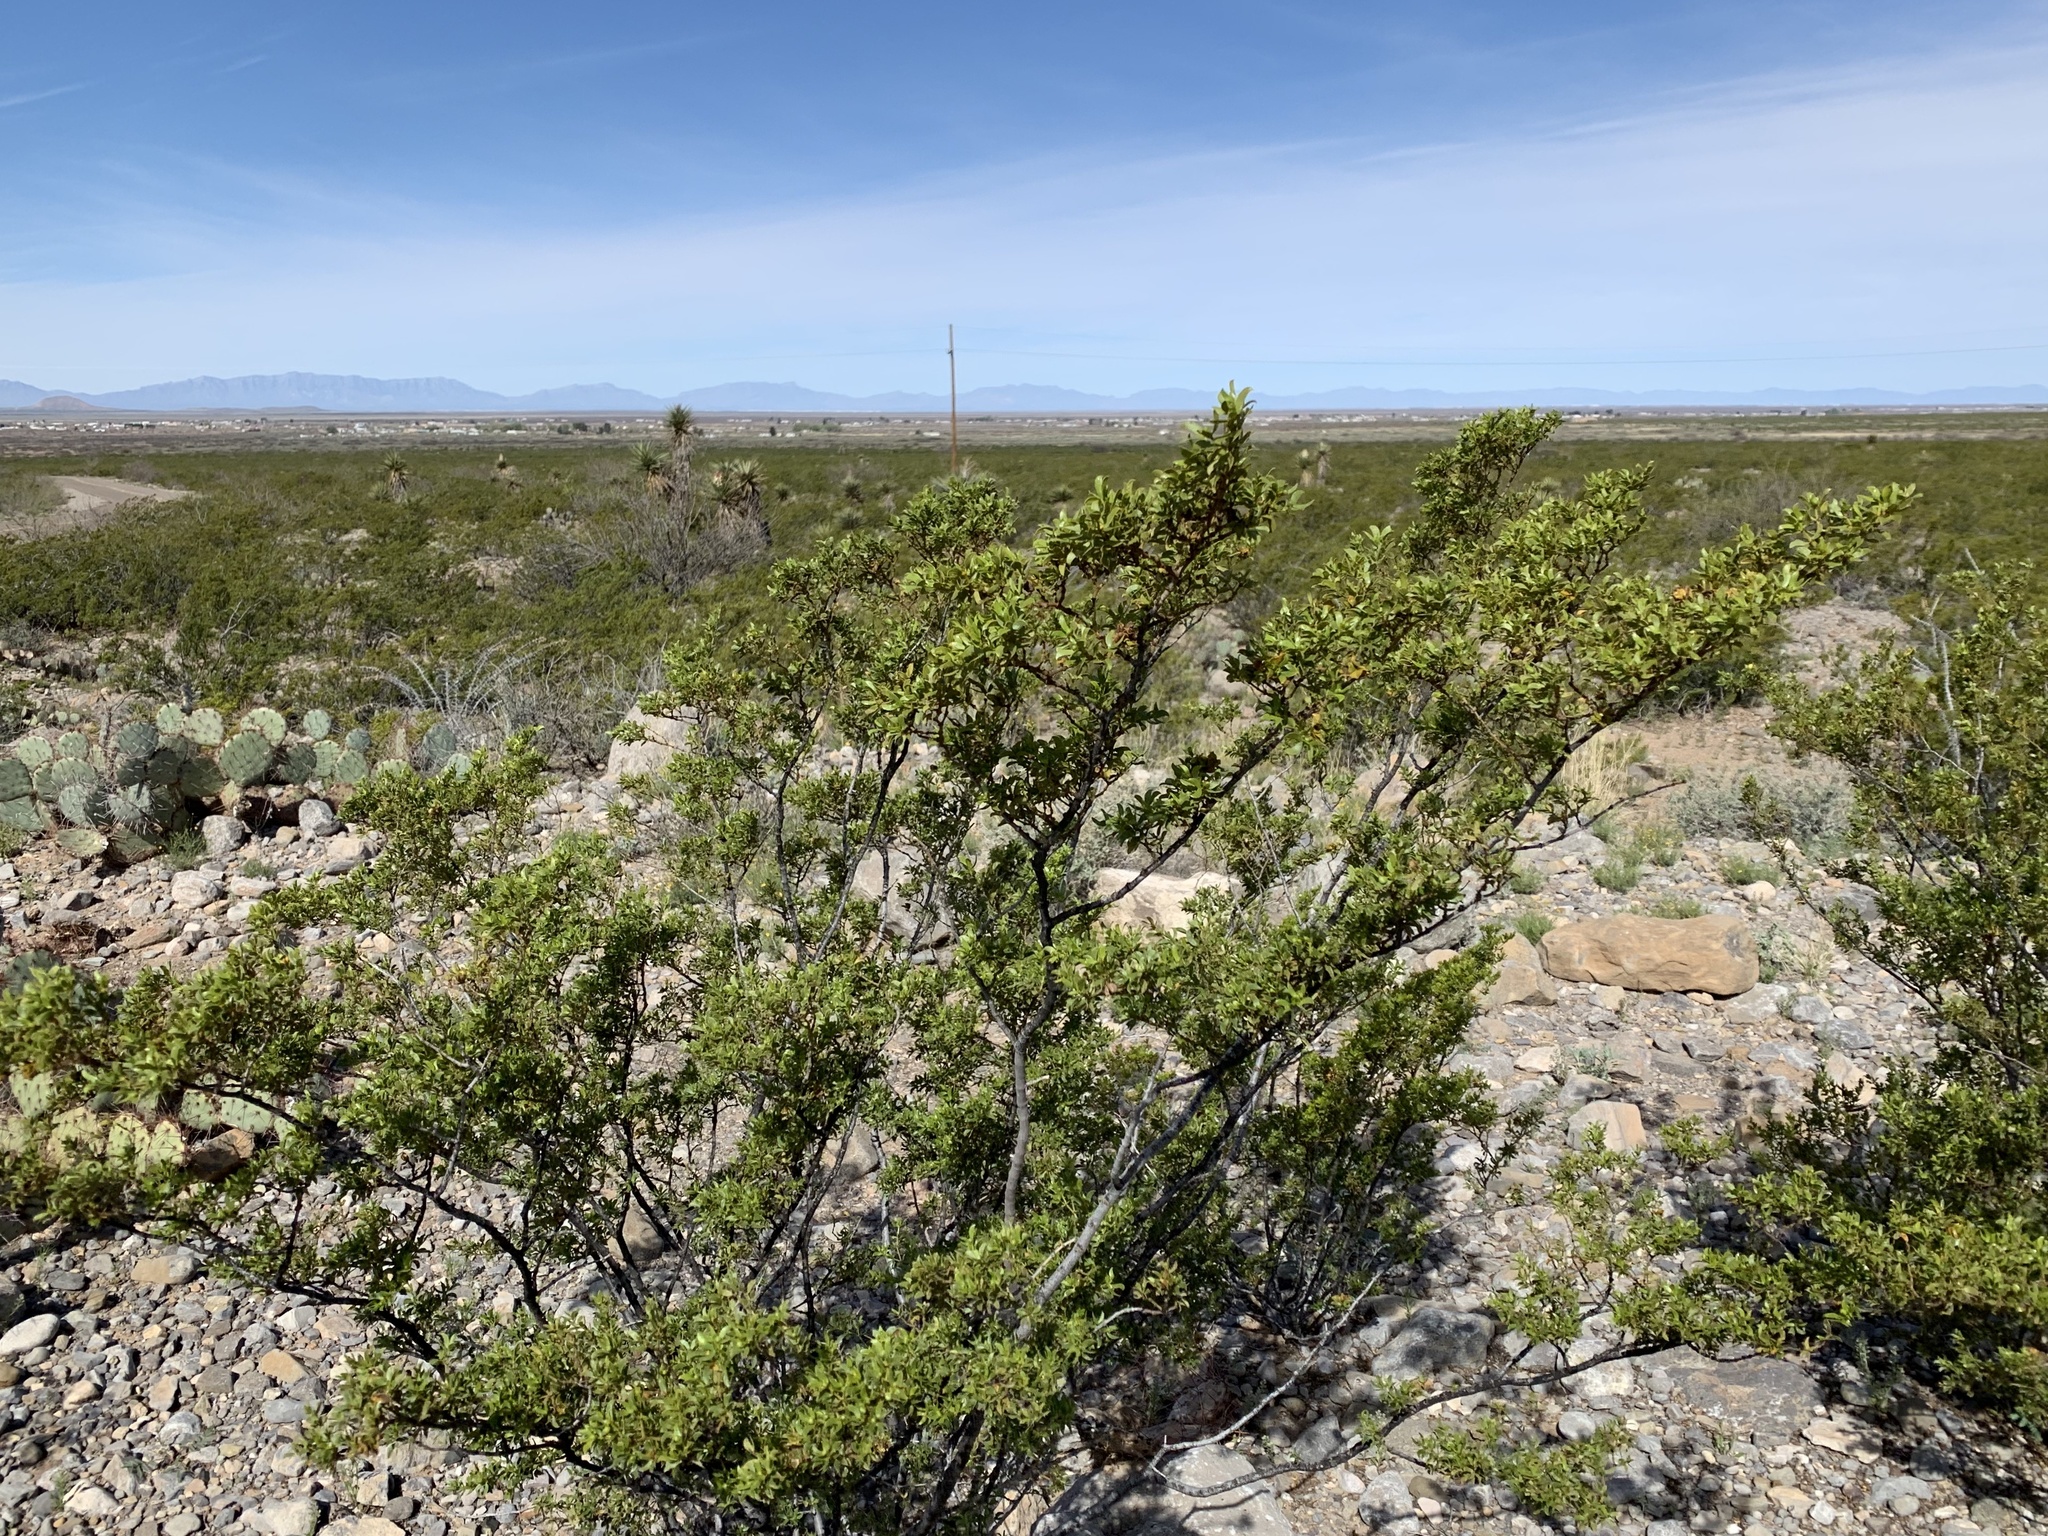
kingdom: Plantae
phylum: Tracheophyta
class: Magnoliopsida
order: Zygophyllales
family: Zygophyllaceae
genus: Larrea
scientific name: Larrea tridentata
